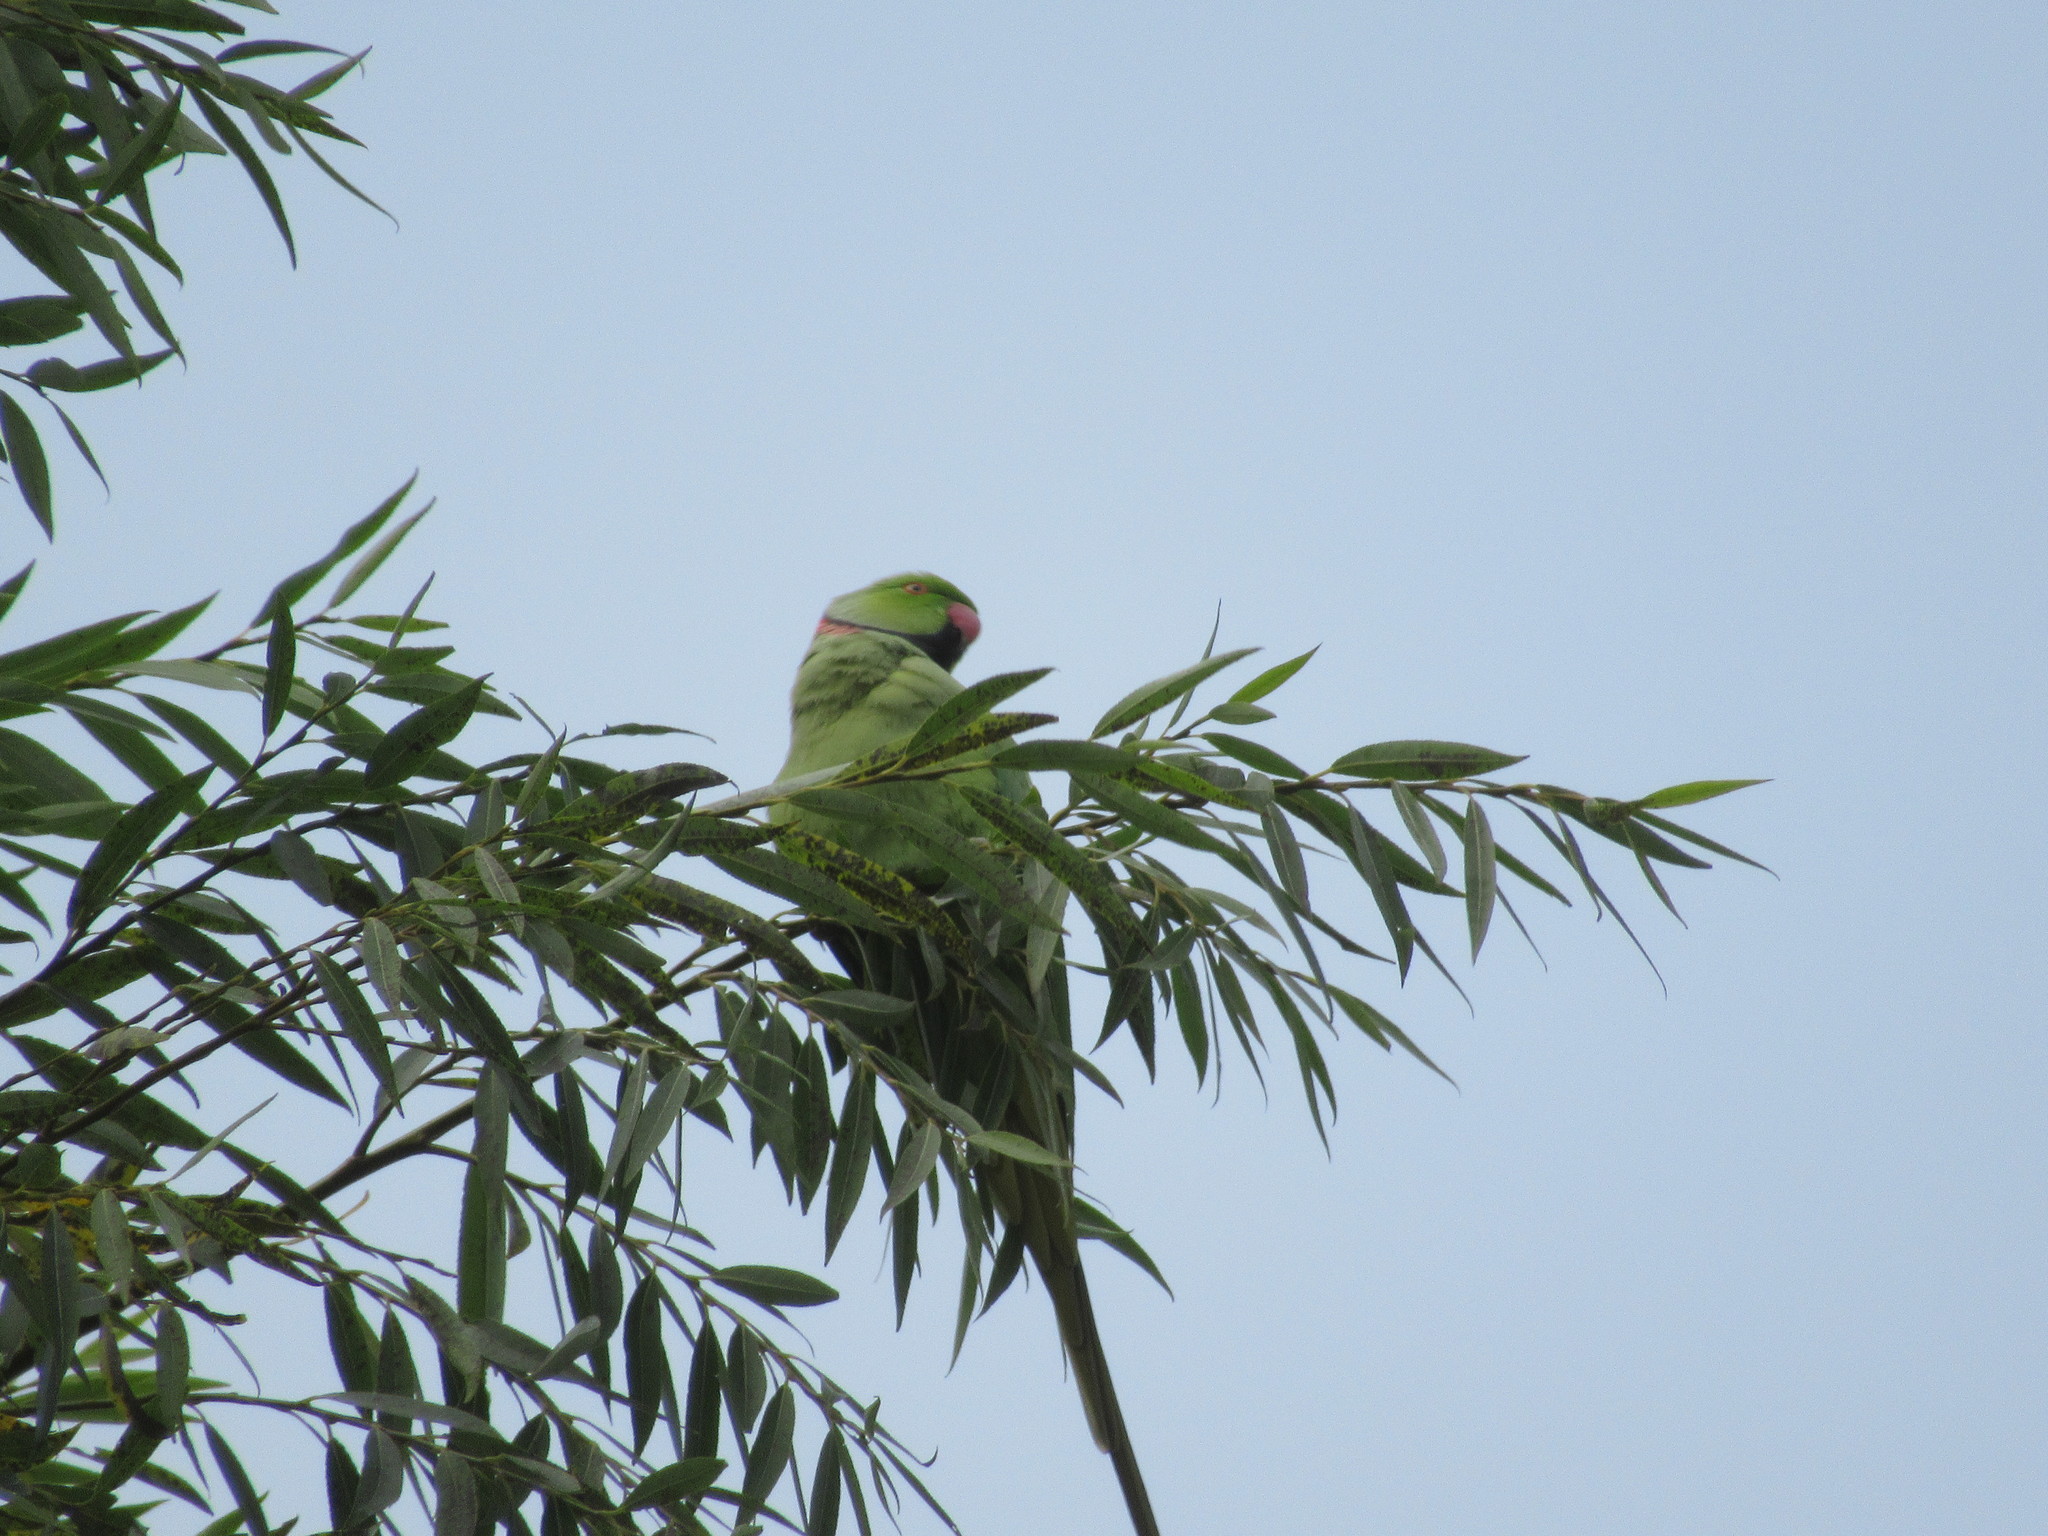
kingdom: Animalia
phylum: Chordata
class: Aves
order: Psittaciformes
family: Psittacidae
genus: Psittacula
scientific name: Psittacula krameri
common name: Rose-ringed parakeet
